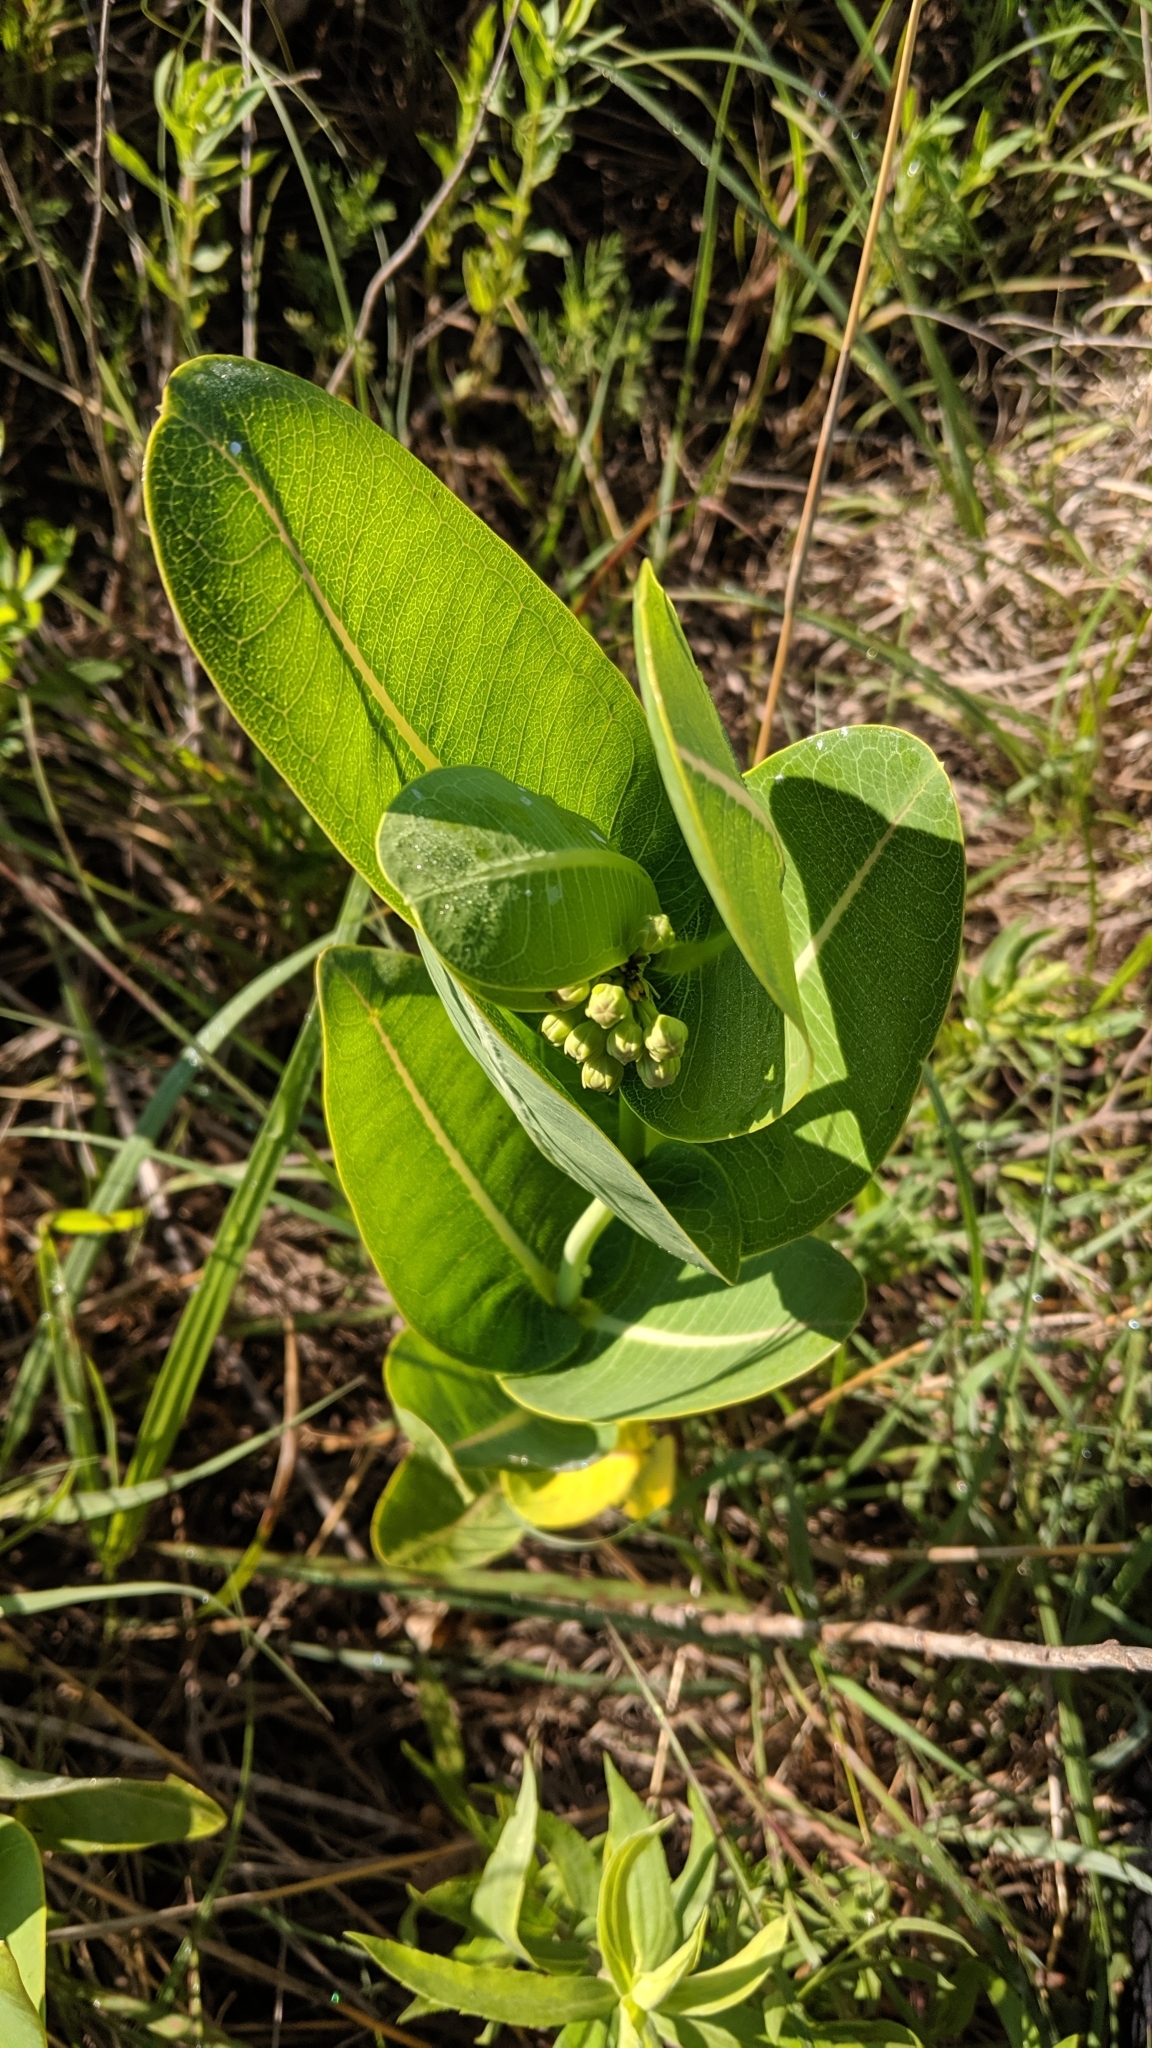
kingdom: Plantae
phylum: Tracheophyta
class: Magnoliopsida
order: Gentianales
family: Apocynaceae
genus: Asclepias
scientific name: Asclepias sullivantii
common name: Prairie milkweed
